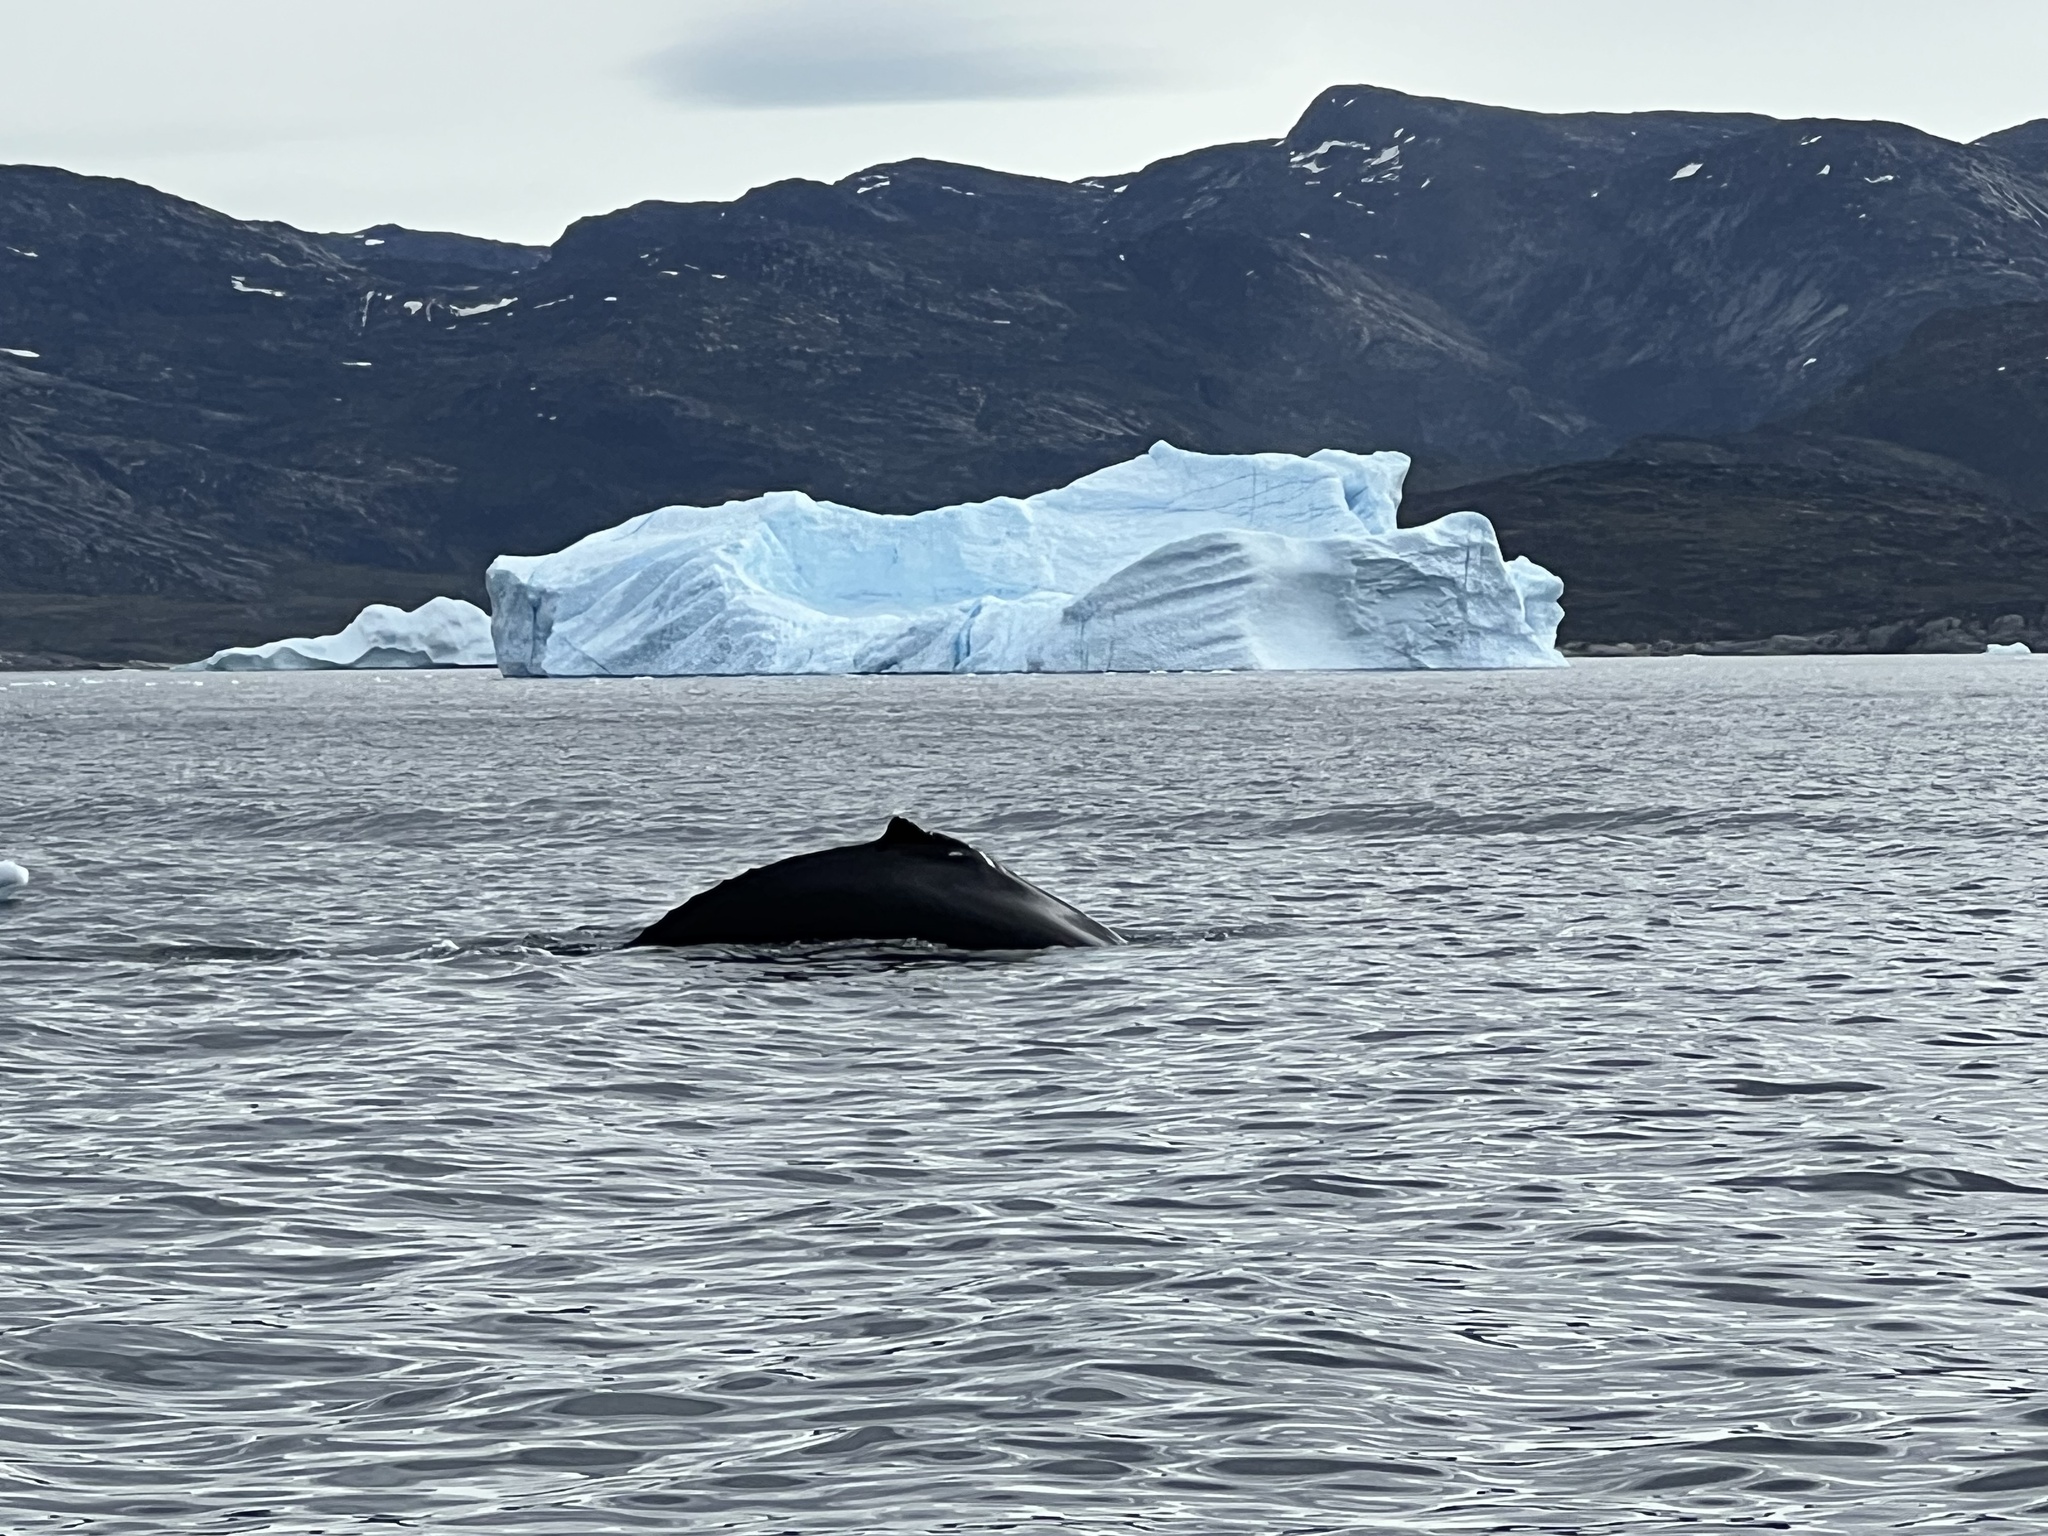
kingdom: Animalia
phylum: Chordata
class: Mammalia
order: Cetacea
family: Balaenopteridae
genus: Megaptera
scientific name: Megaptera novaeangliae
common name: Humpback whale
